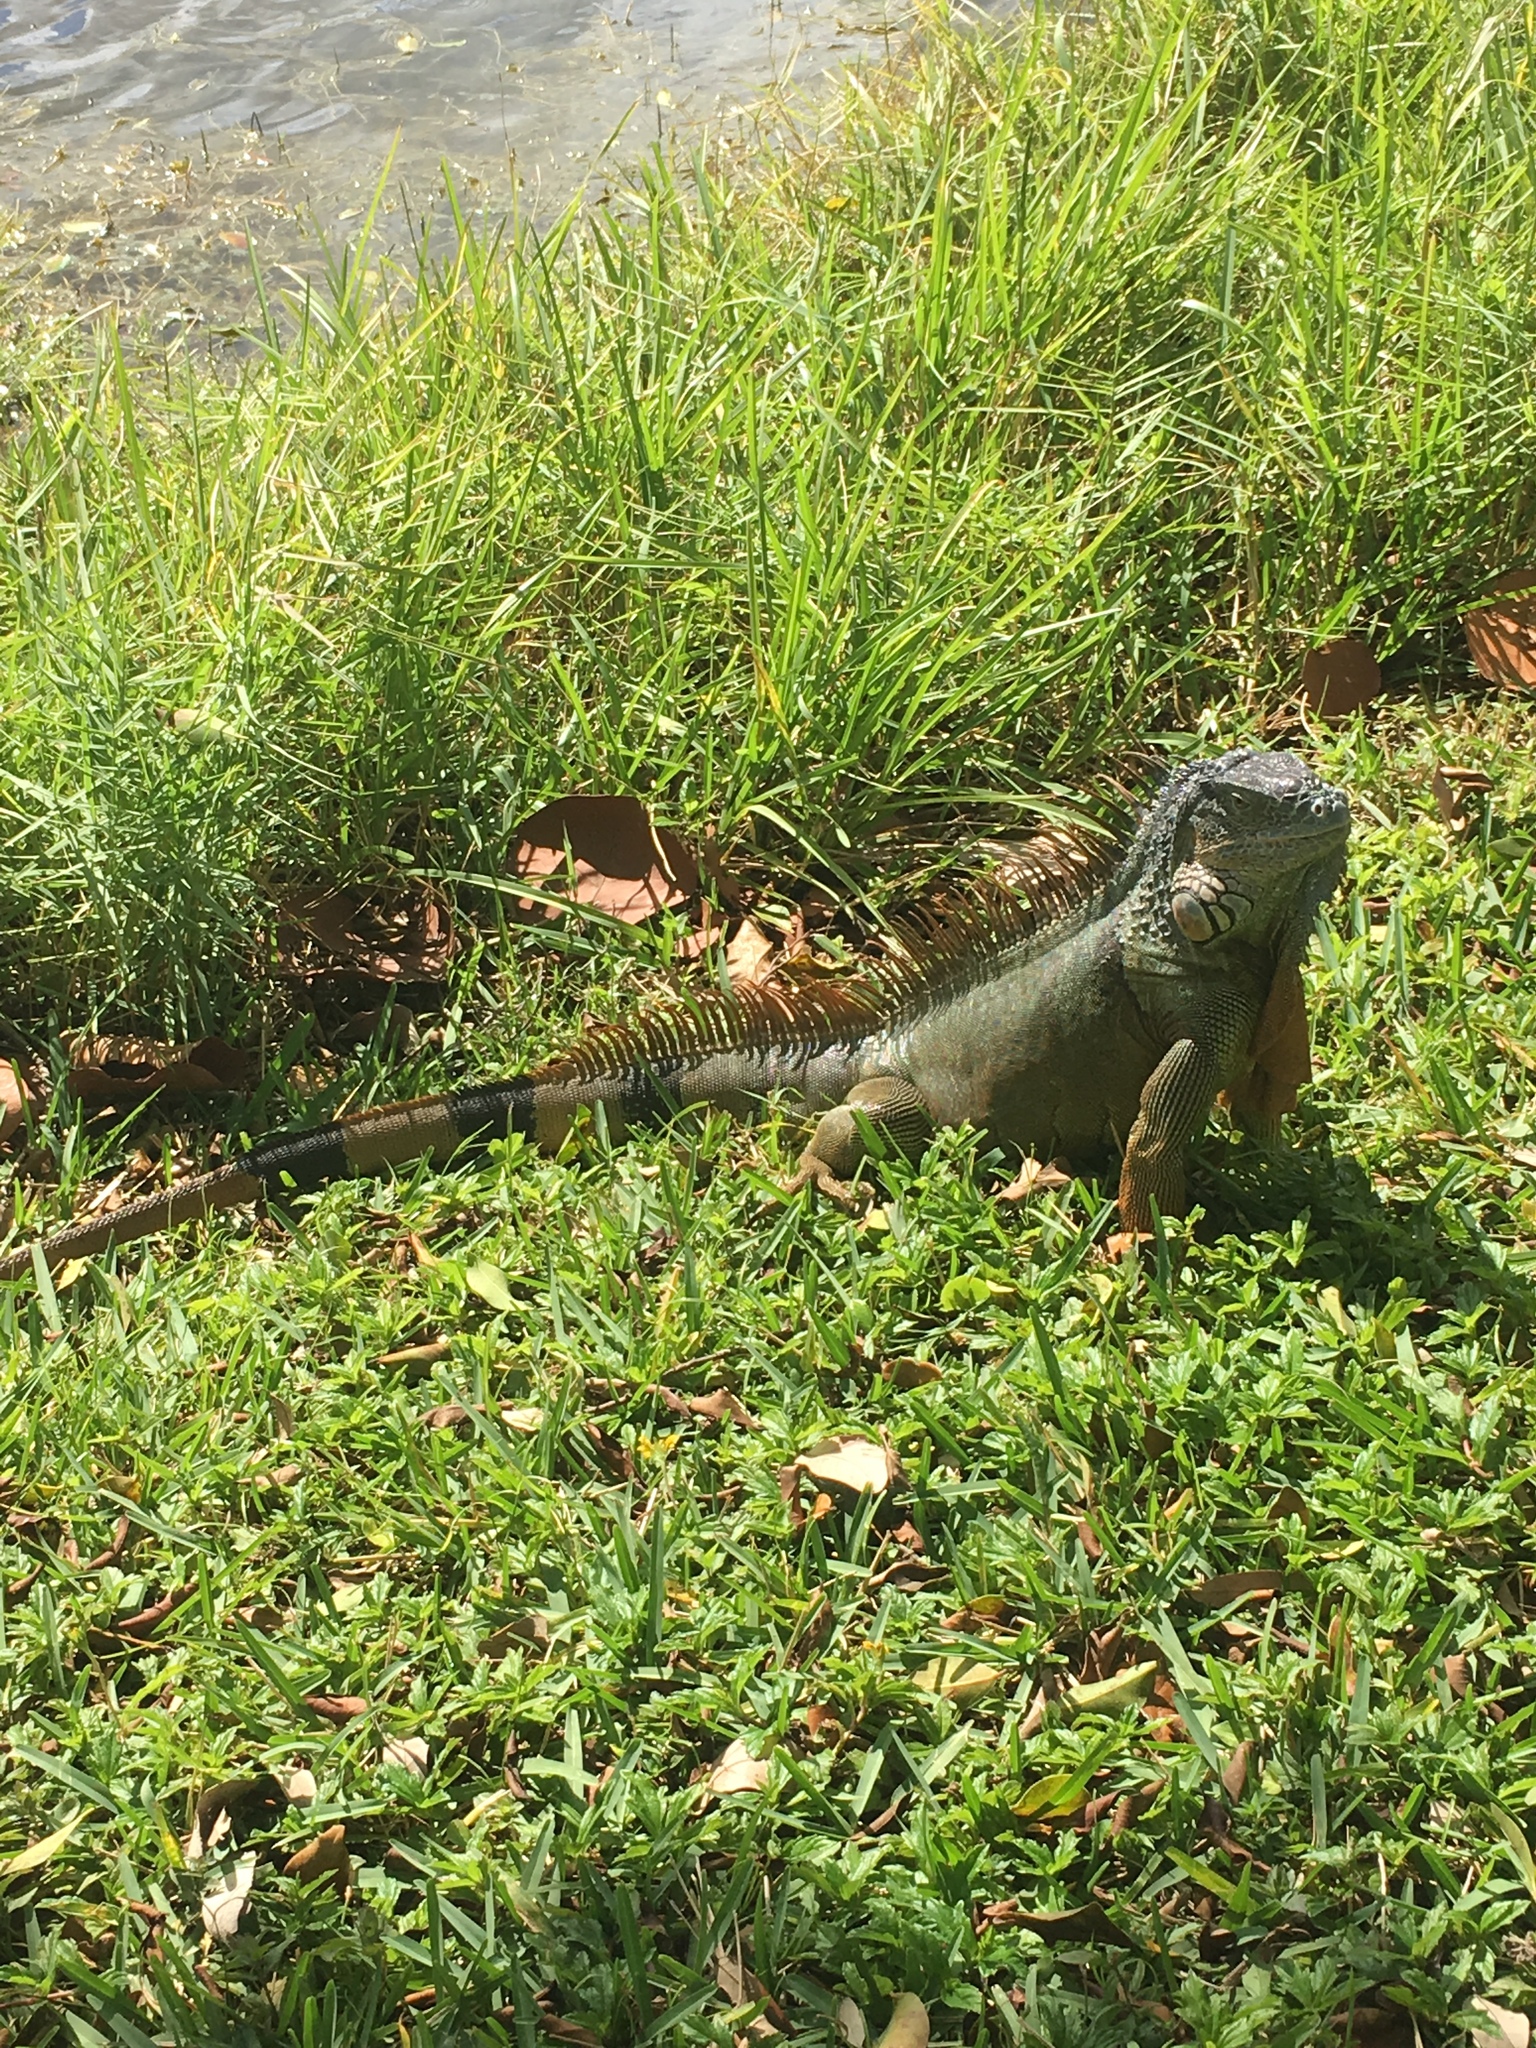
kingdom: Animalia
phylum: Chordata
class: Squamata
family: Iguanidae
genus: Iguana
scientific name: Iguana iguana
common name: Green iguana
